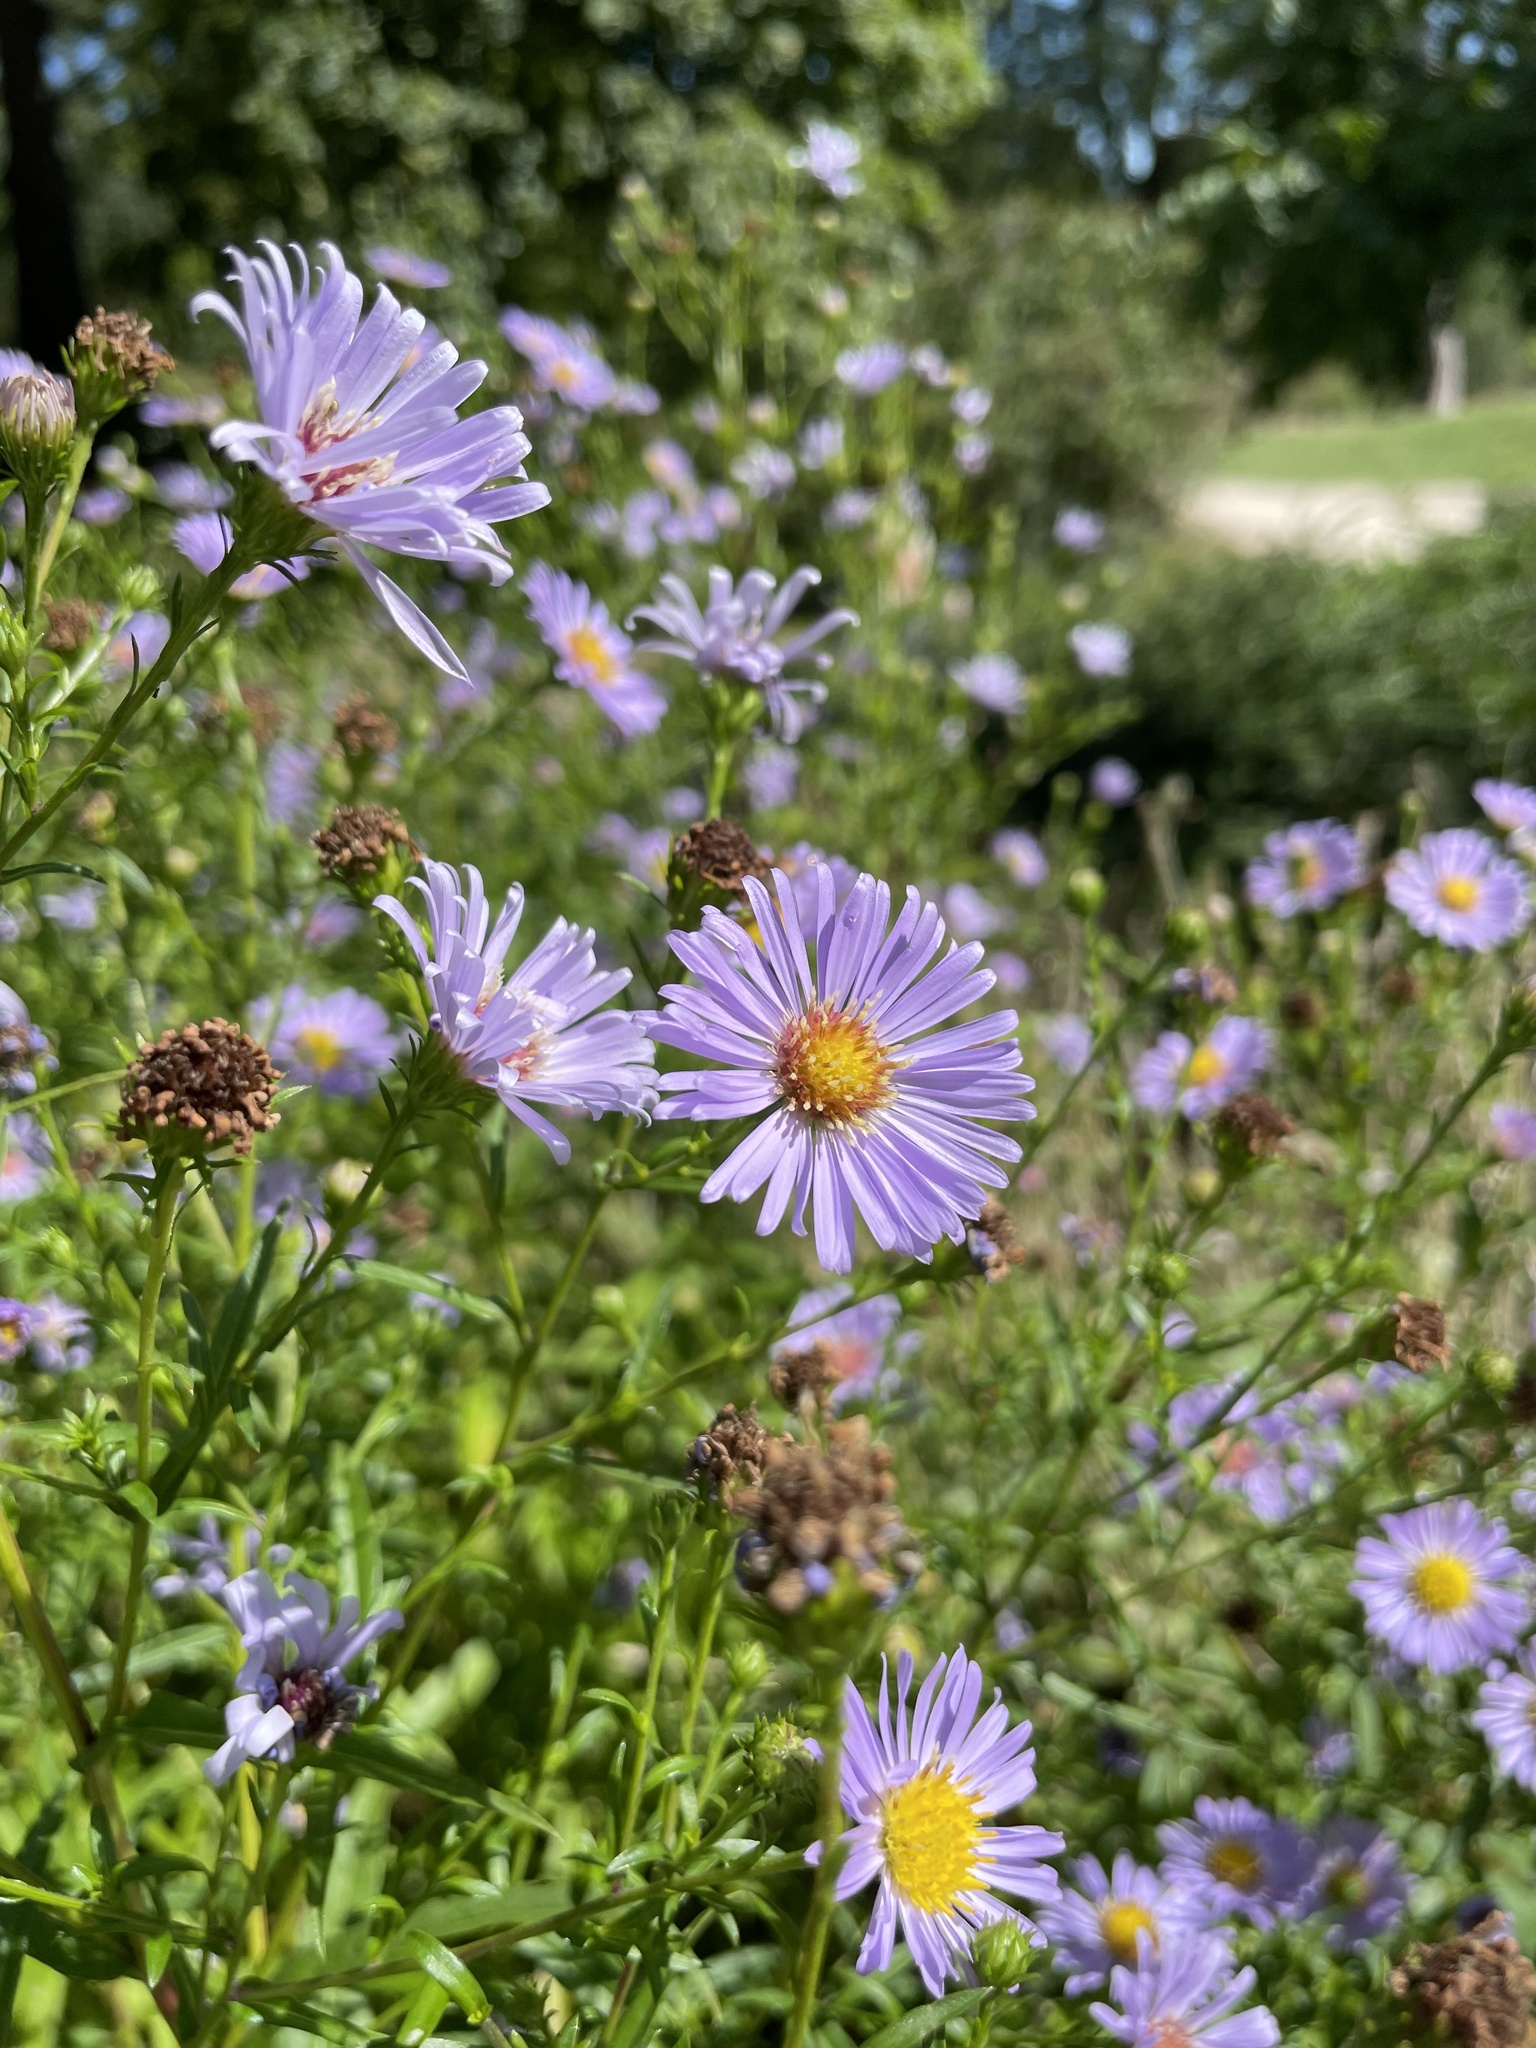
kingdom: Plantae
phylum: Tracheophyta
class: Magnoliopsida
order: Asterales
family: Asteraceae
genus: Symphyotrichum
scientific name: Symphyotrichum novi-belgii
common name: Michaelmas daisy
